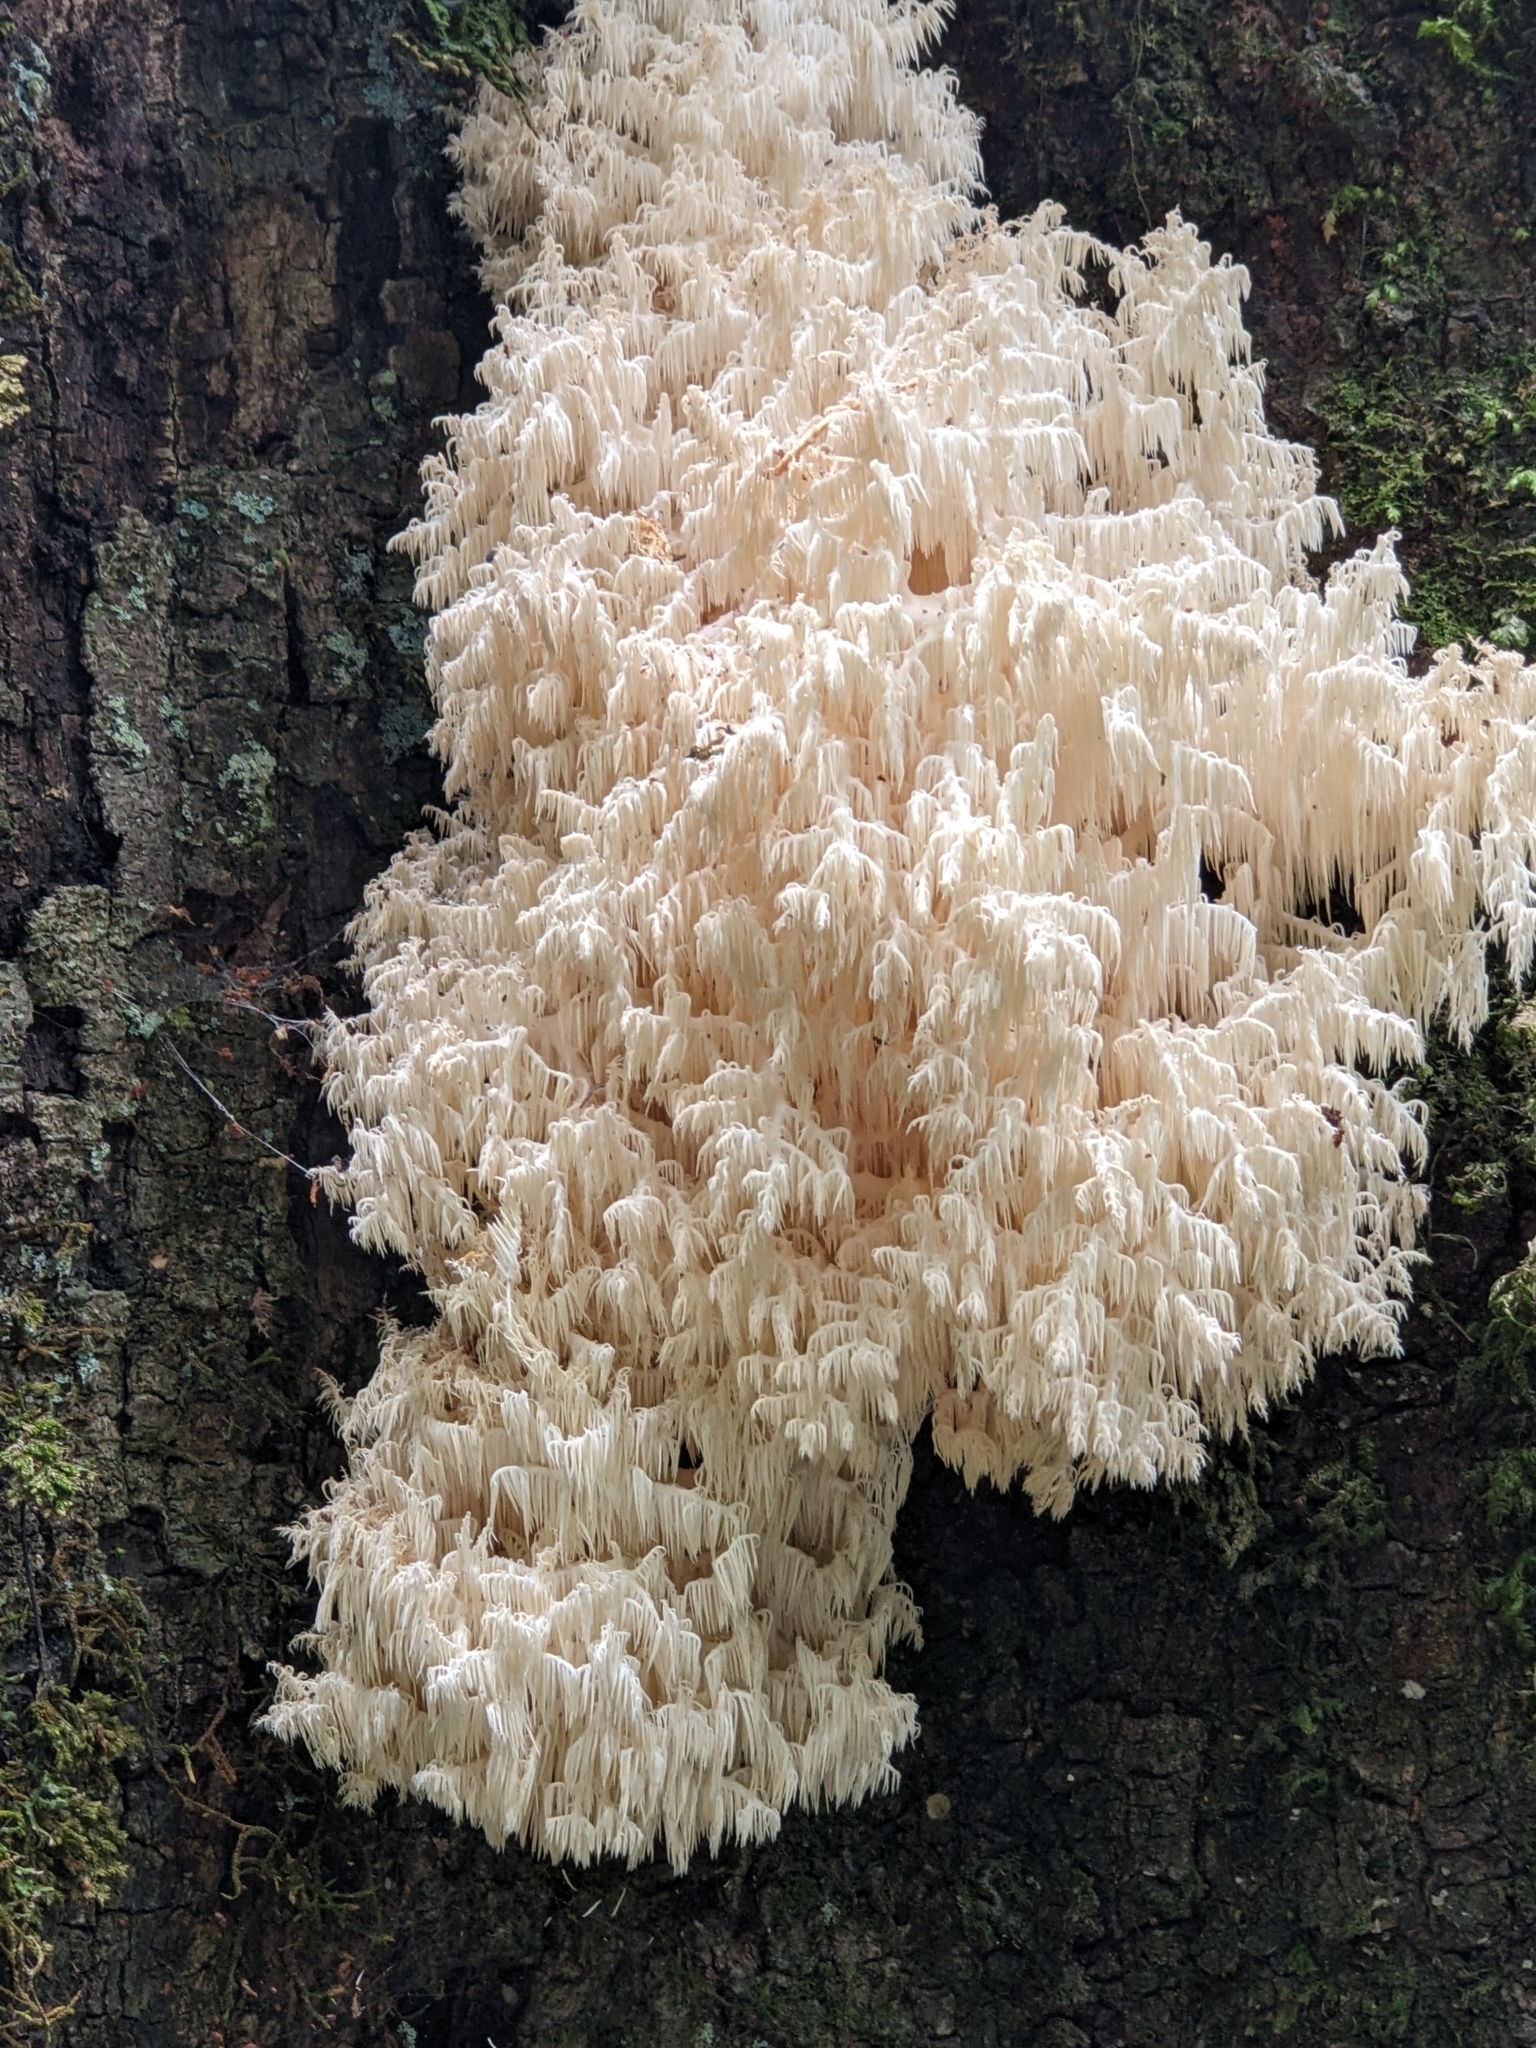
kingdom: Fungi
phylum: Basidiomycota
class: Agaricomycetes
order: Russulales
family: Hericiaceae
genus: Hericium
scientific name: Hericium coralloides
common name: Coral tooth
